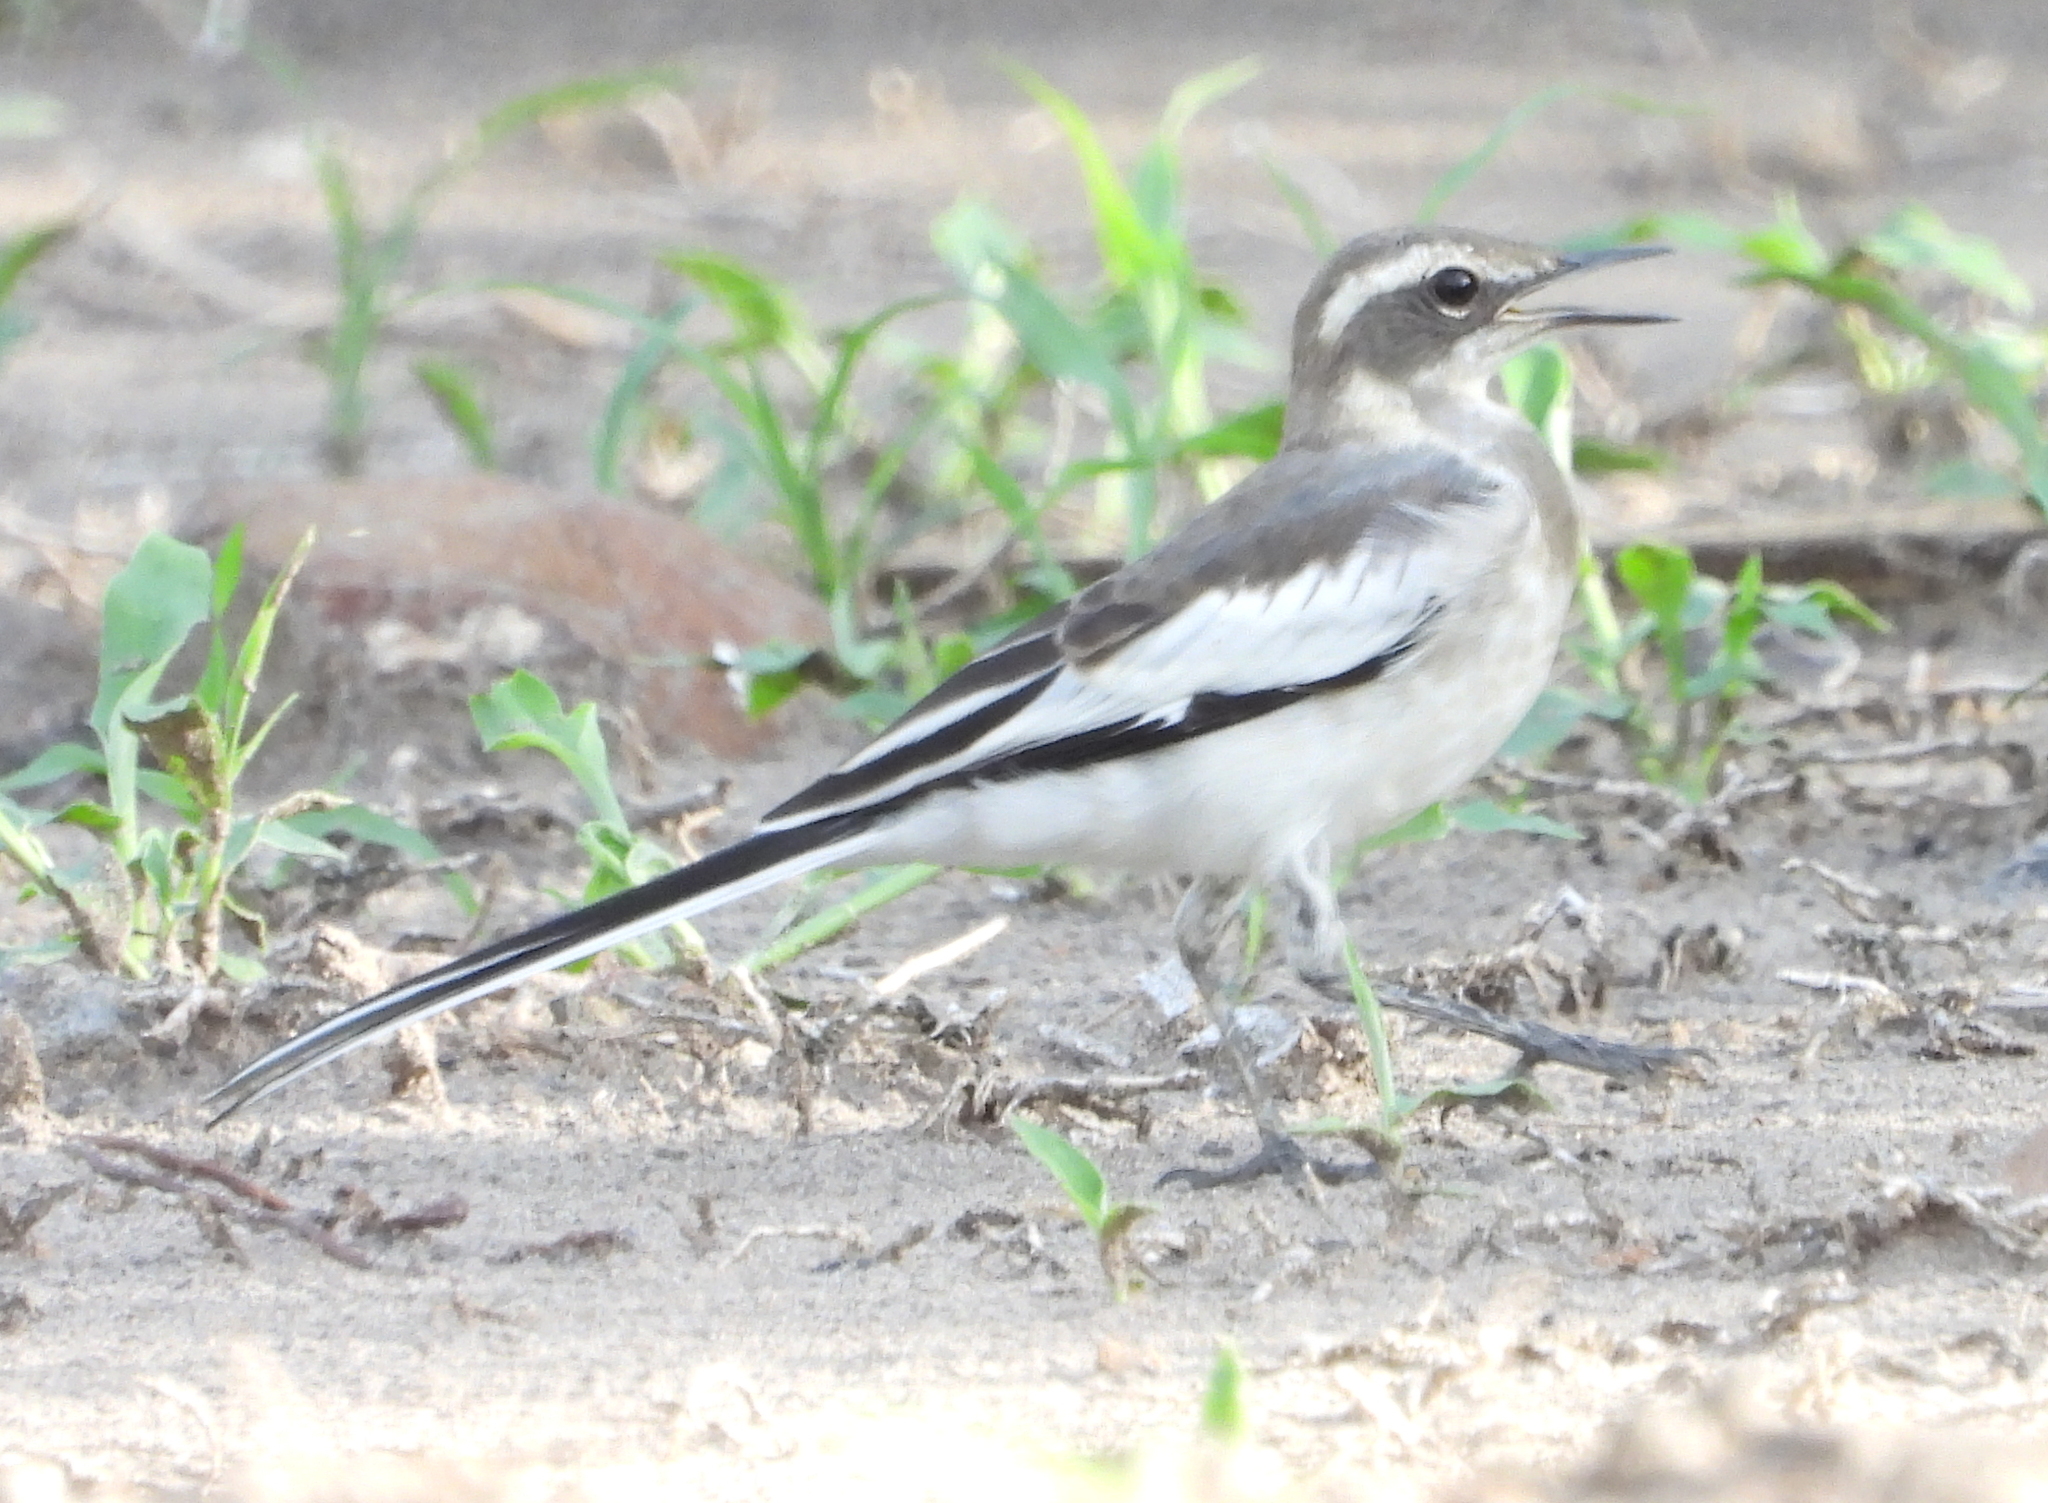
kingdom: Animalia
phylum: Chordata
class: Aves
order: Passeriformes
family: Motacillidae
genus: Motacilla
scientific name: Motacilla aguimp
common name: African pied wagtail
